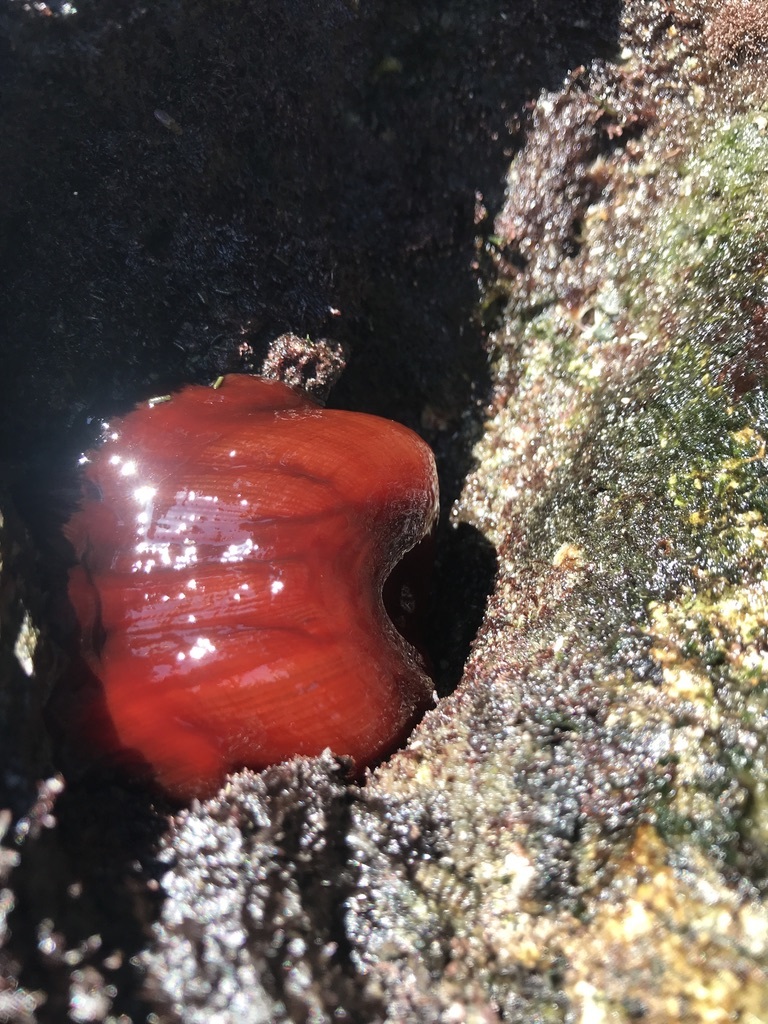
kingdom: Animalia
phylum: Cnidaria
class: Anthozoa
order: Actiniaria
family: Actiniidae
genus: Actinia
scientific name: Actinia equina
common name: Beadlet anemone
